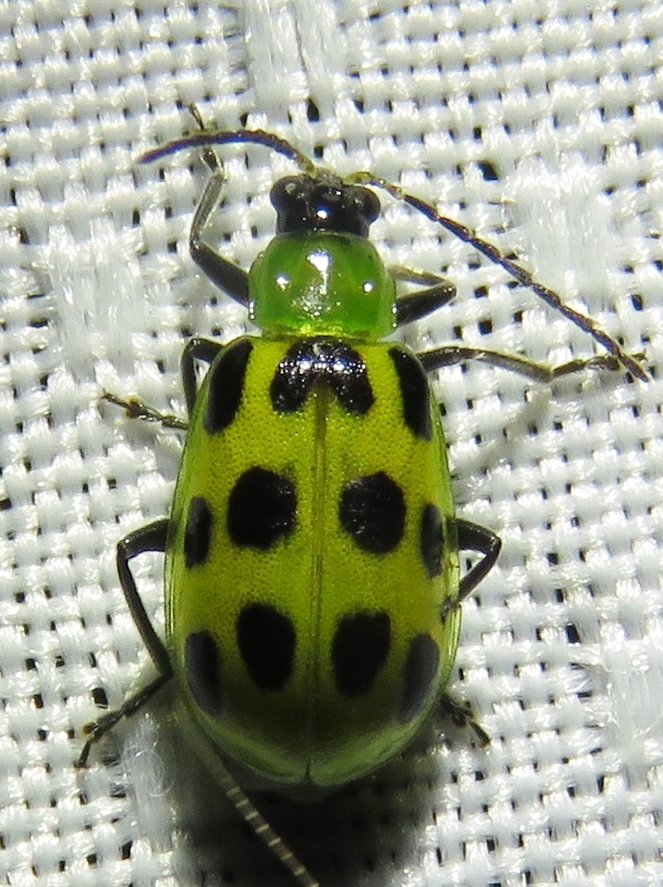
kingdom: Animalia
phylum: Arthropoda
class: Insecta
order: Coleoptera
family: Chrysomelidae
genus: Diabrotica
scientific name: Diabrotica undecimpunctata
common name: Spotted cucumber beetle
